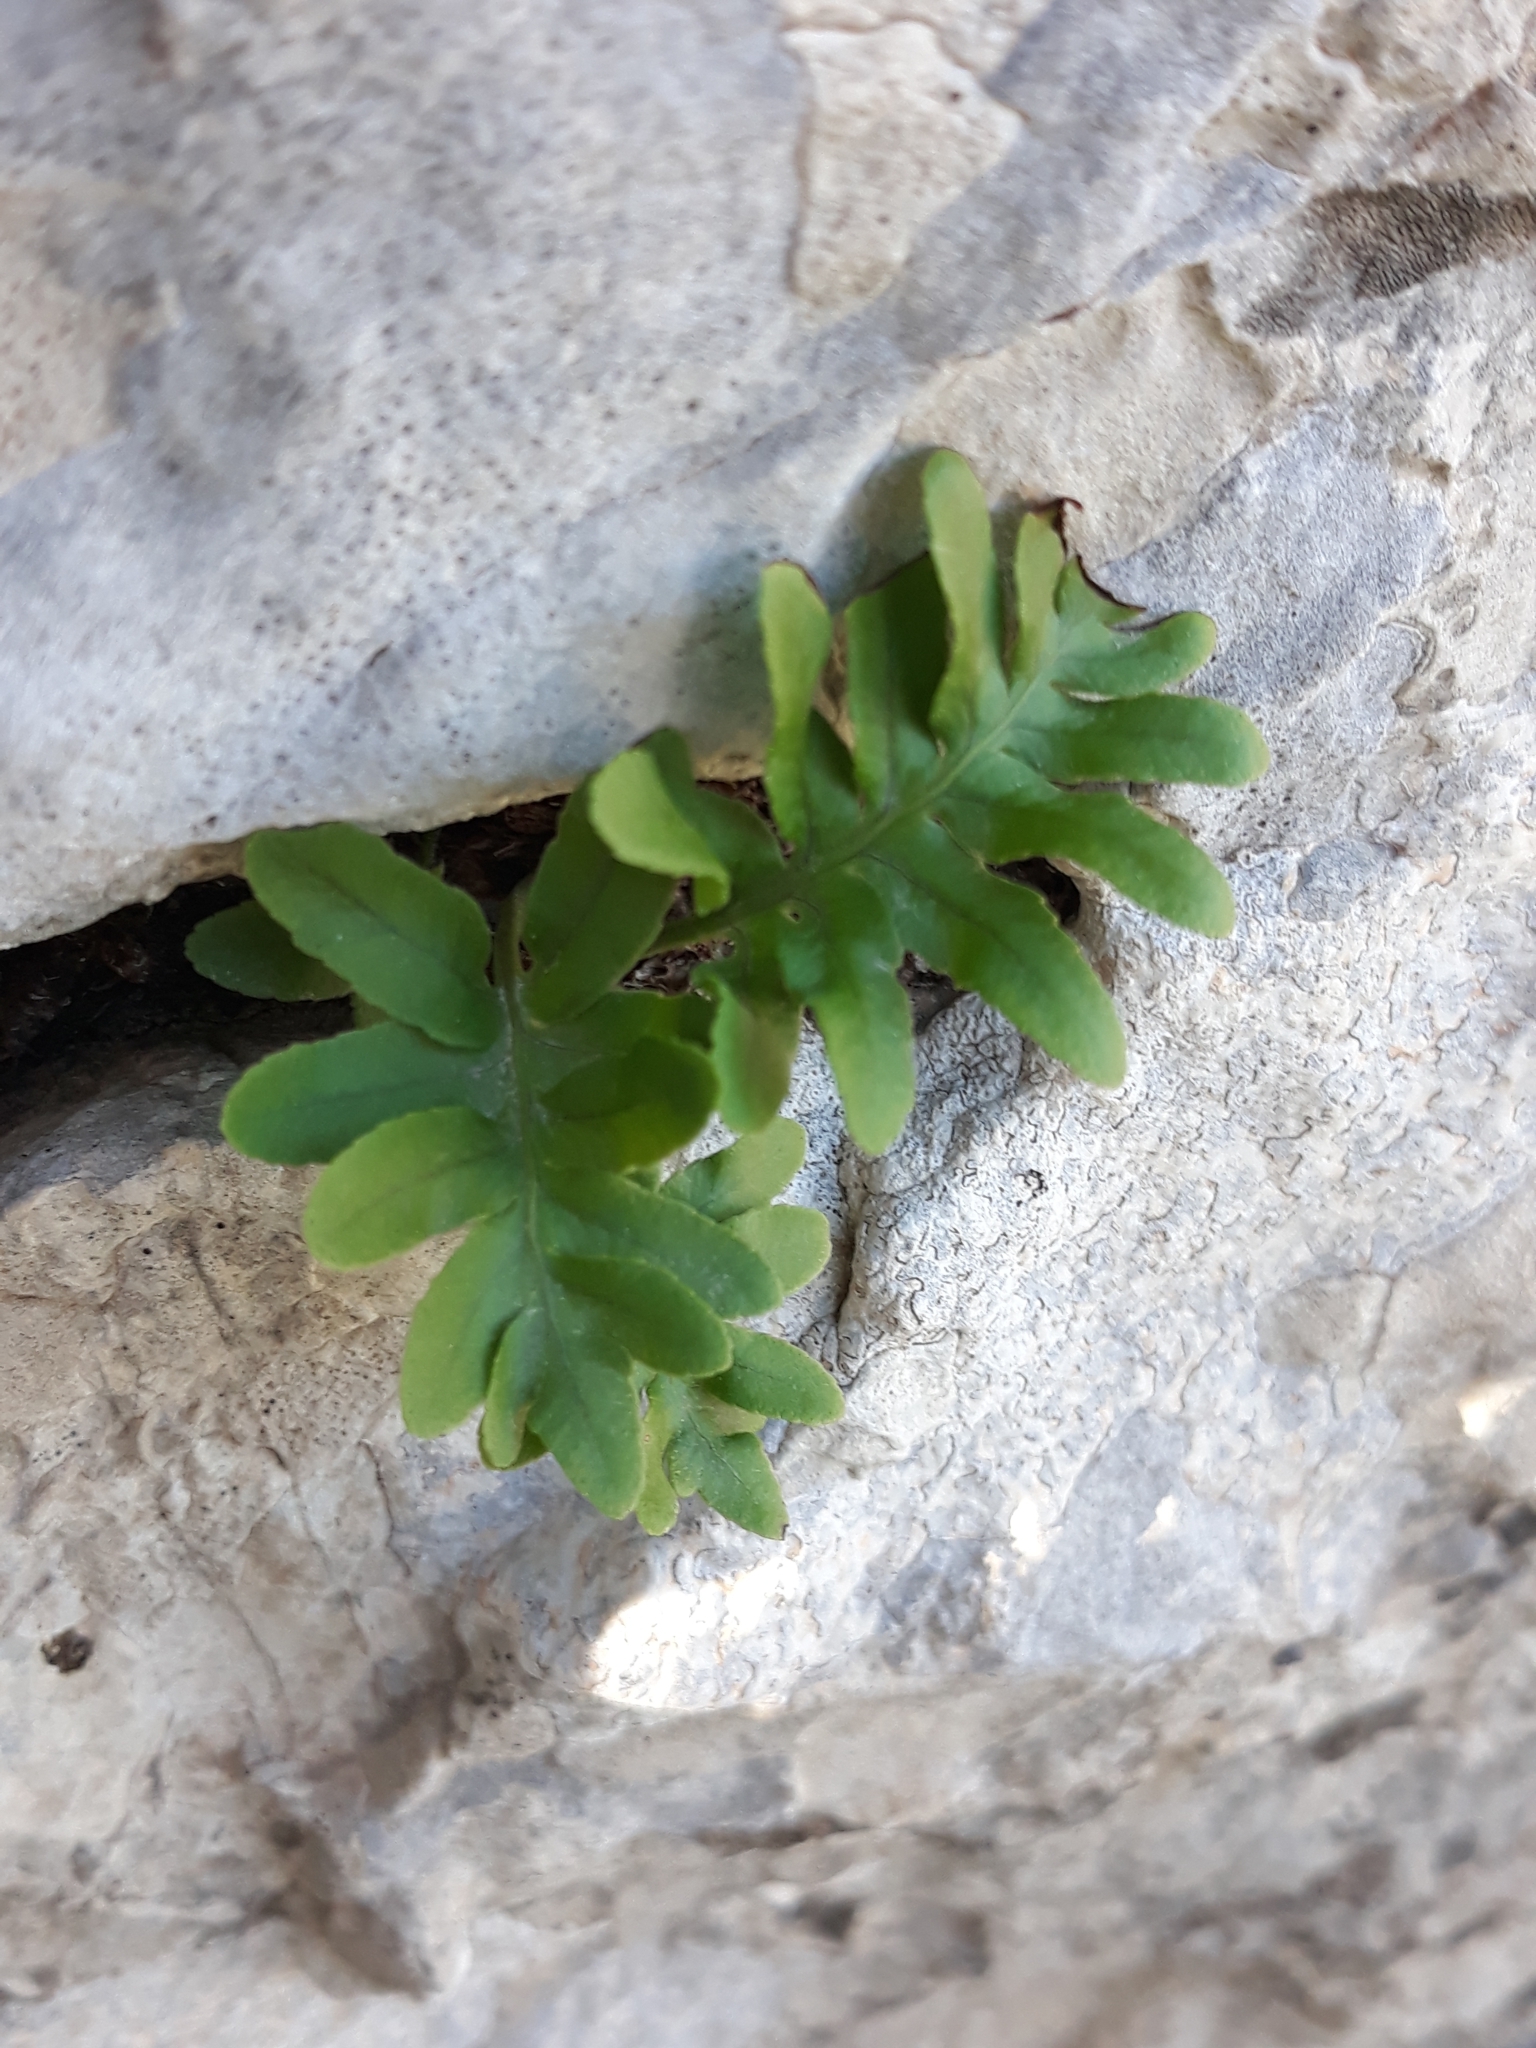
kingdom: Plantae
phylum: Tracheophyta
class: Polypodiopsida
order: Polypodiales
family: Polypodiaceae
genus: Polypodium
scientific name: Polypodium cambricum
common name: Southern polypody
